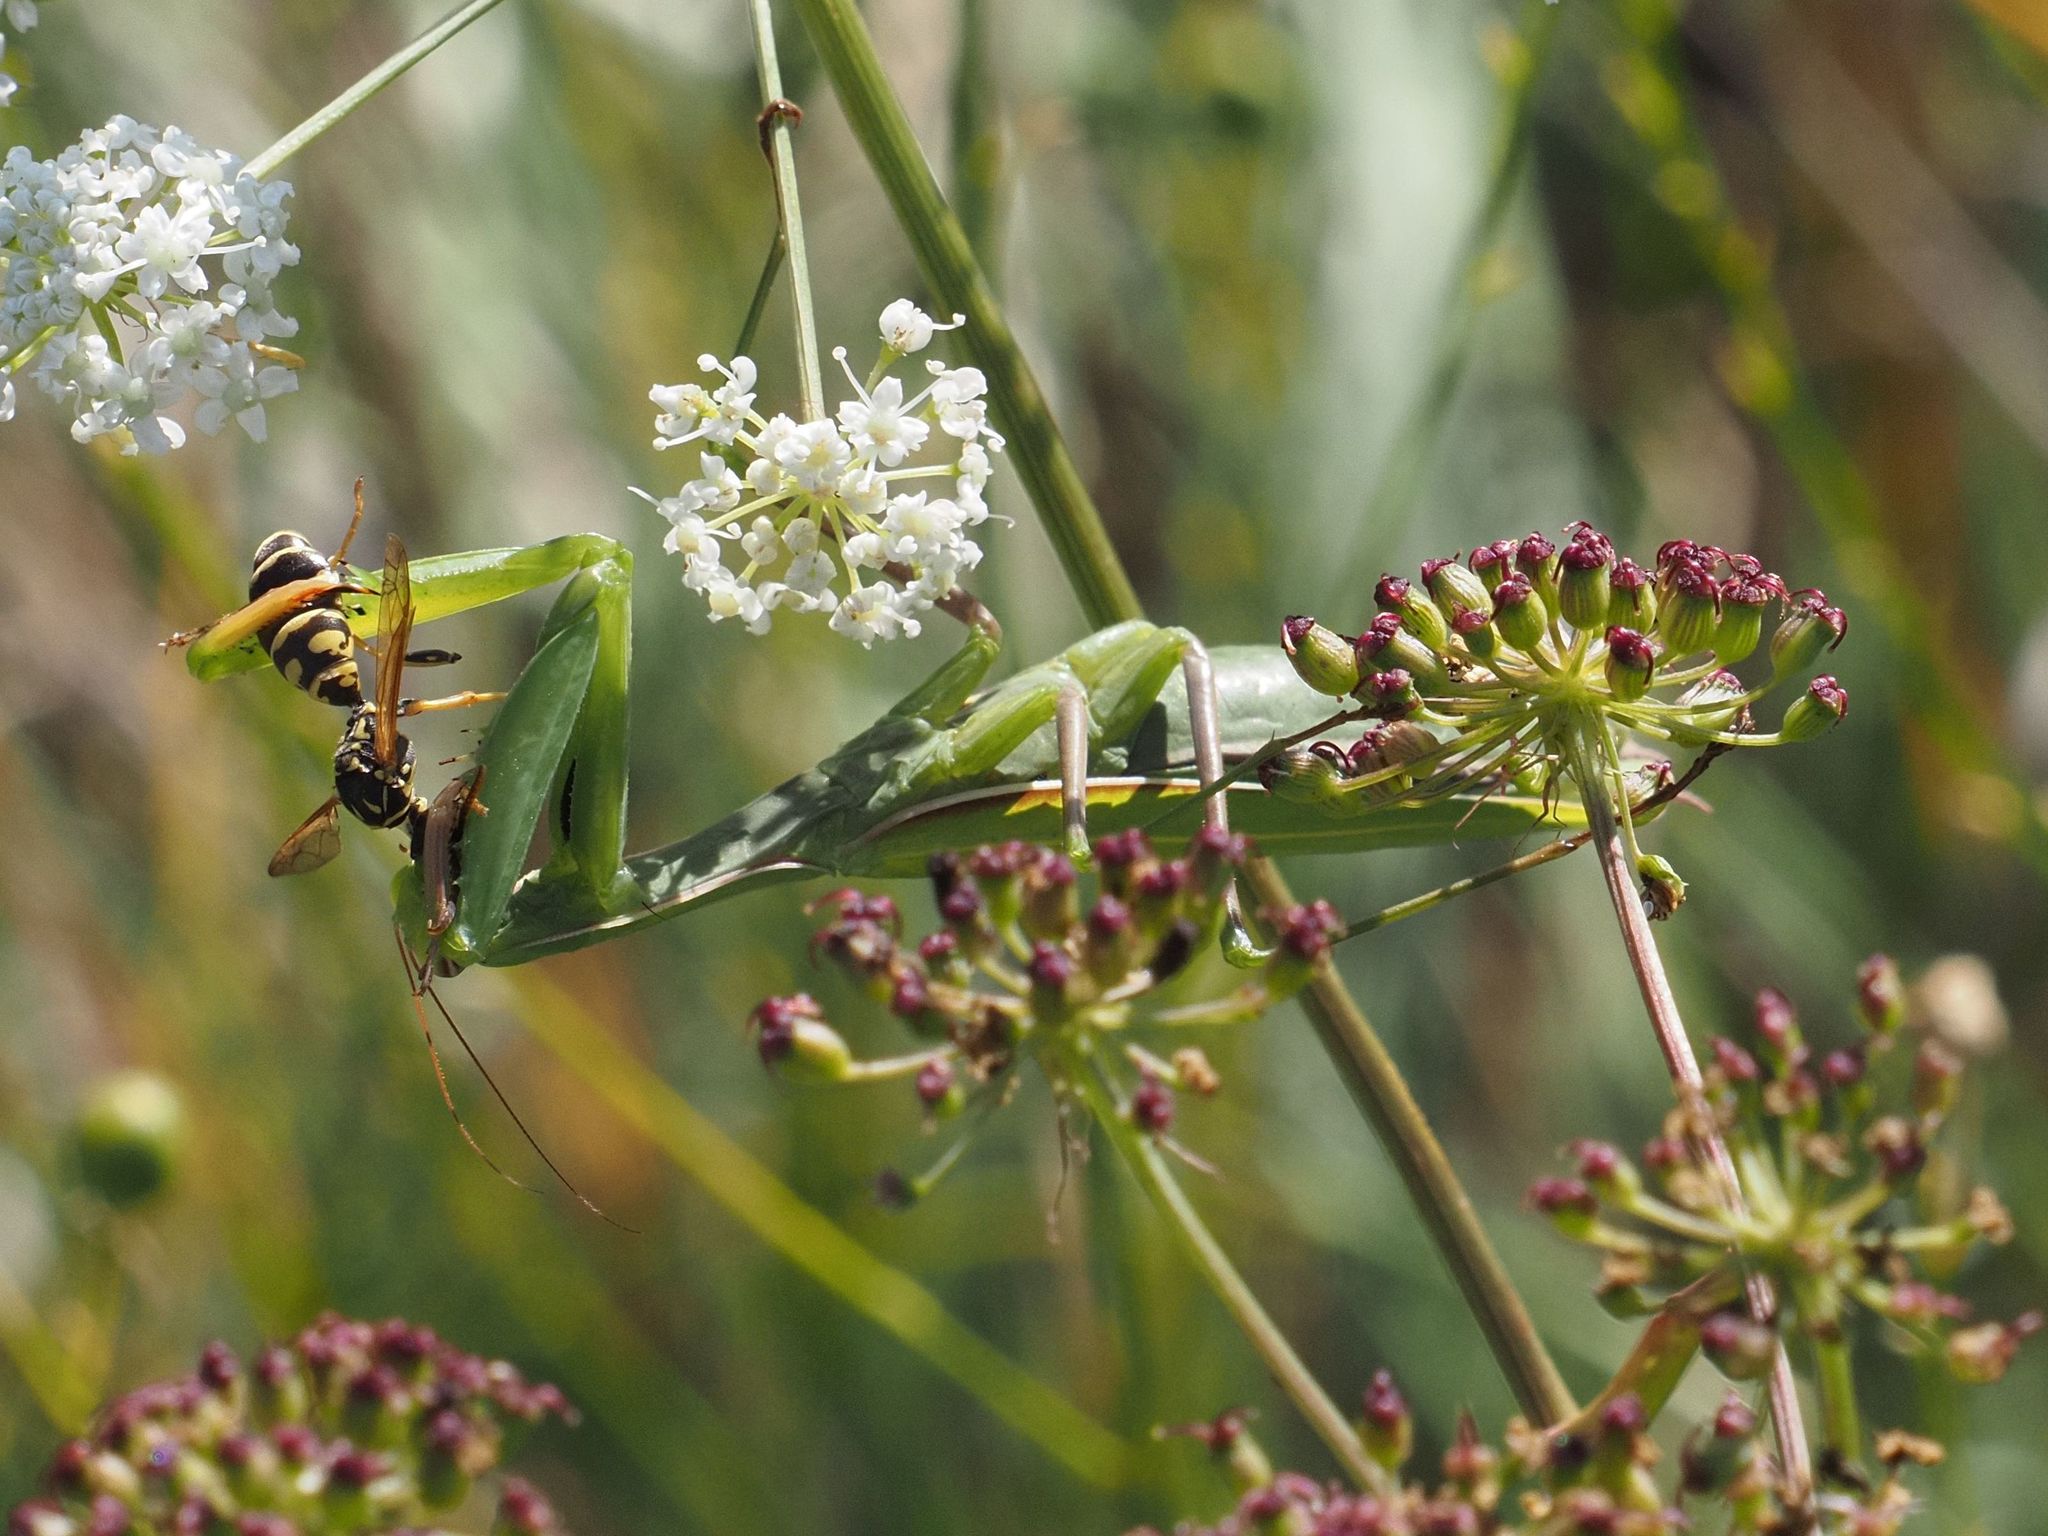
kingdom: Animalia
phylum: Arthropoda
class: Insecta
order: Mantodea
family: Mantidae
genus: Mantis
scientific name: Mantis religiosa
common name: Praying mantis
